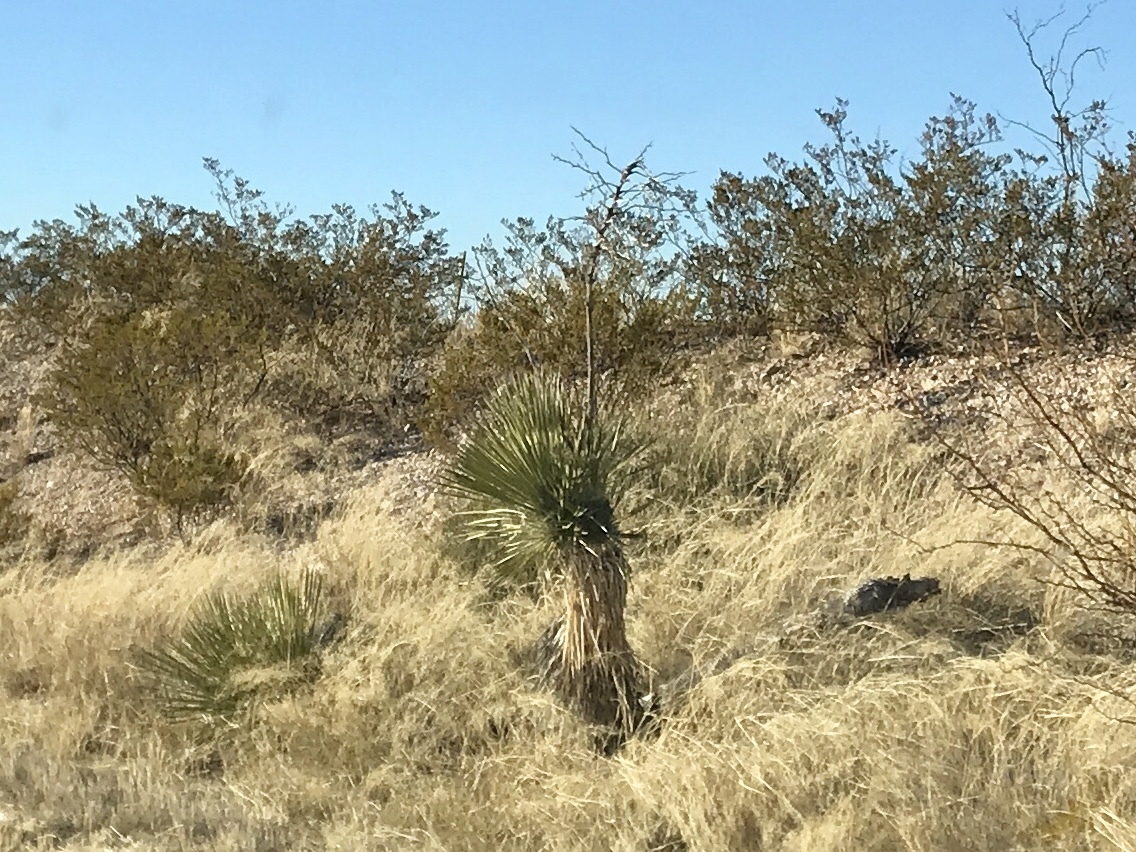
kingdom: Plantae
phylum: Tracheophyta
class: Liliopsida
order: Asparagales
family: Asparagaceae
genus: Yucca
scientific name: Yucca elata
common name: Palmella
